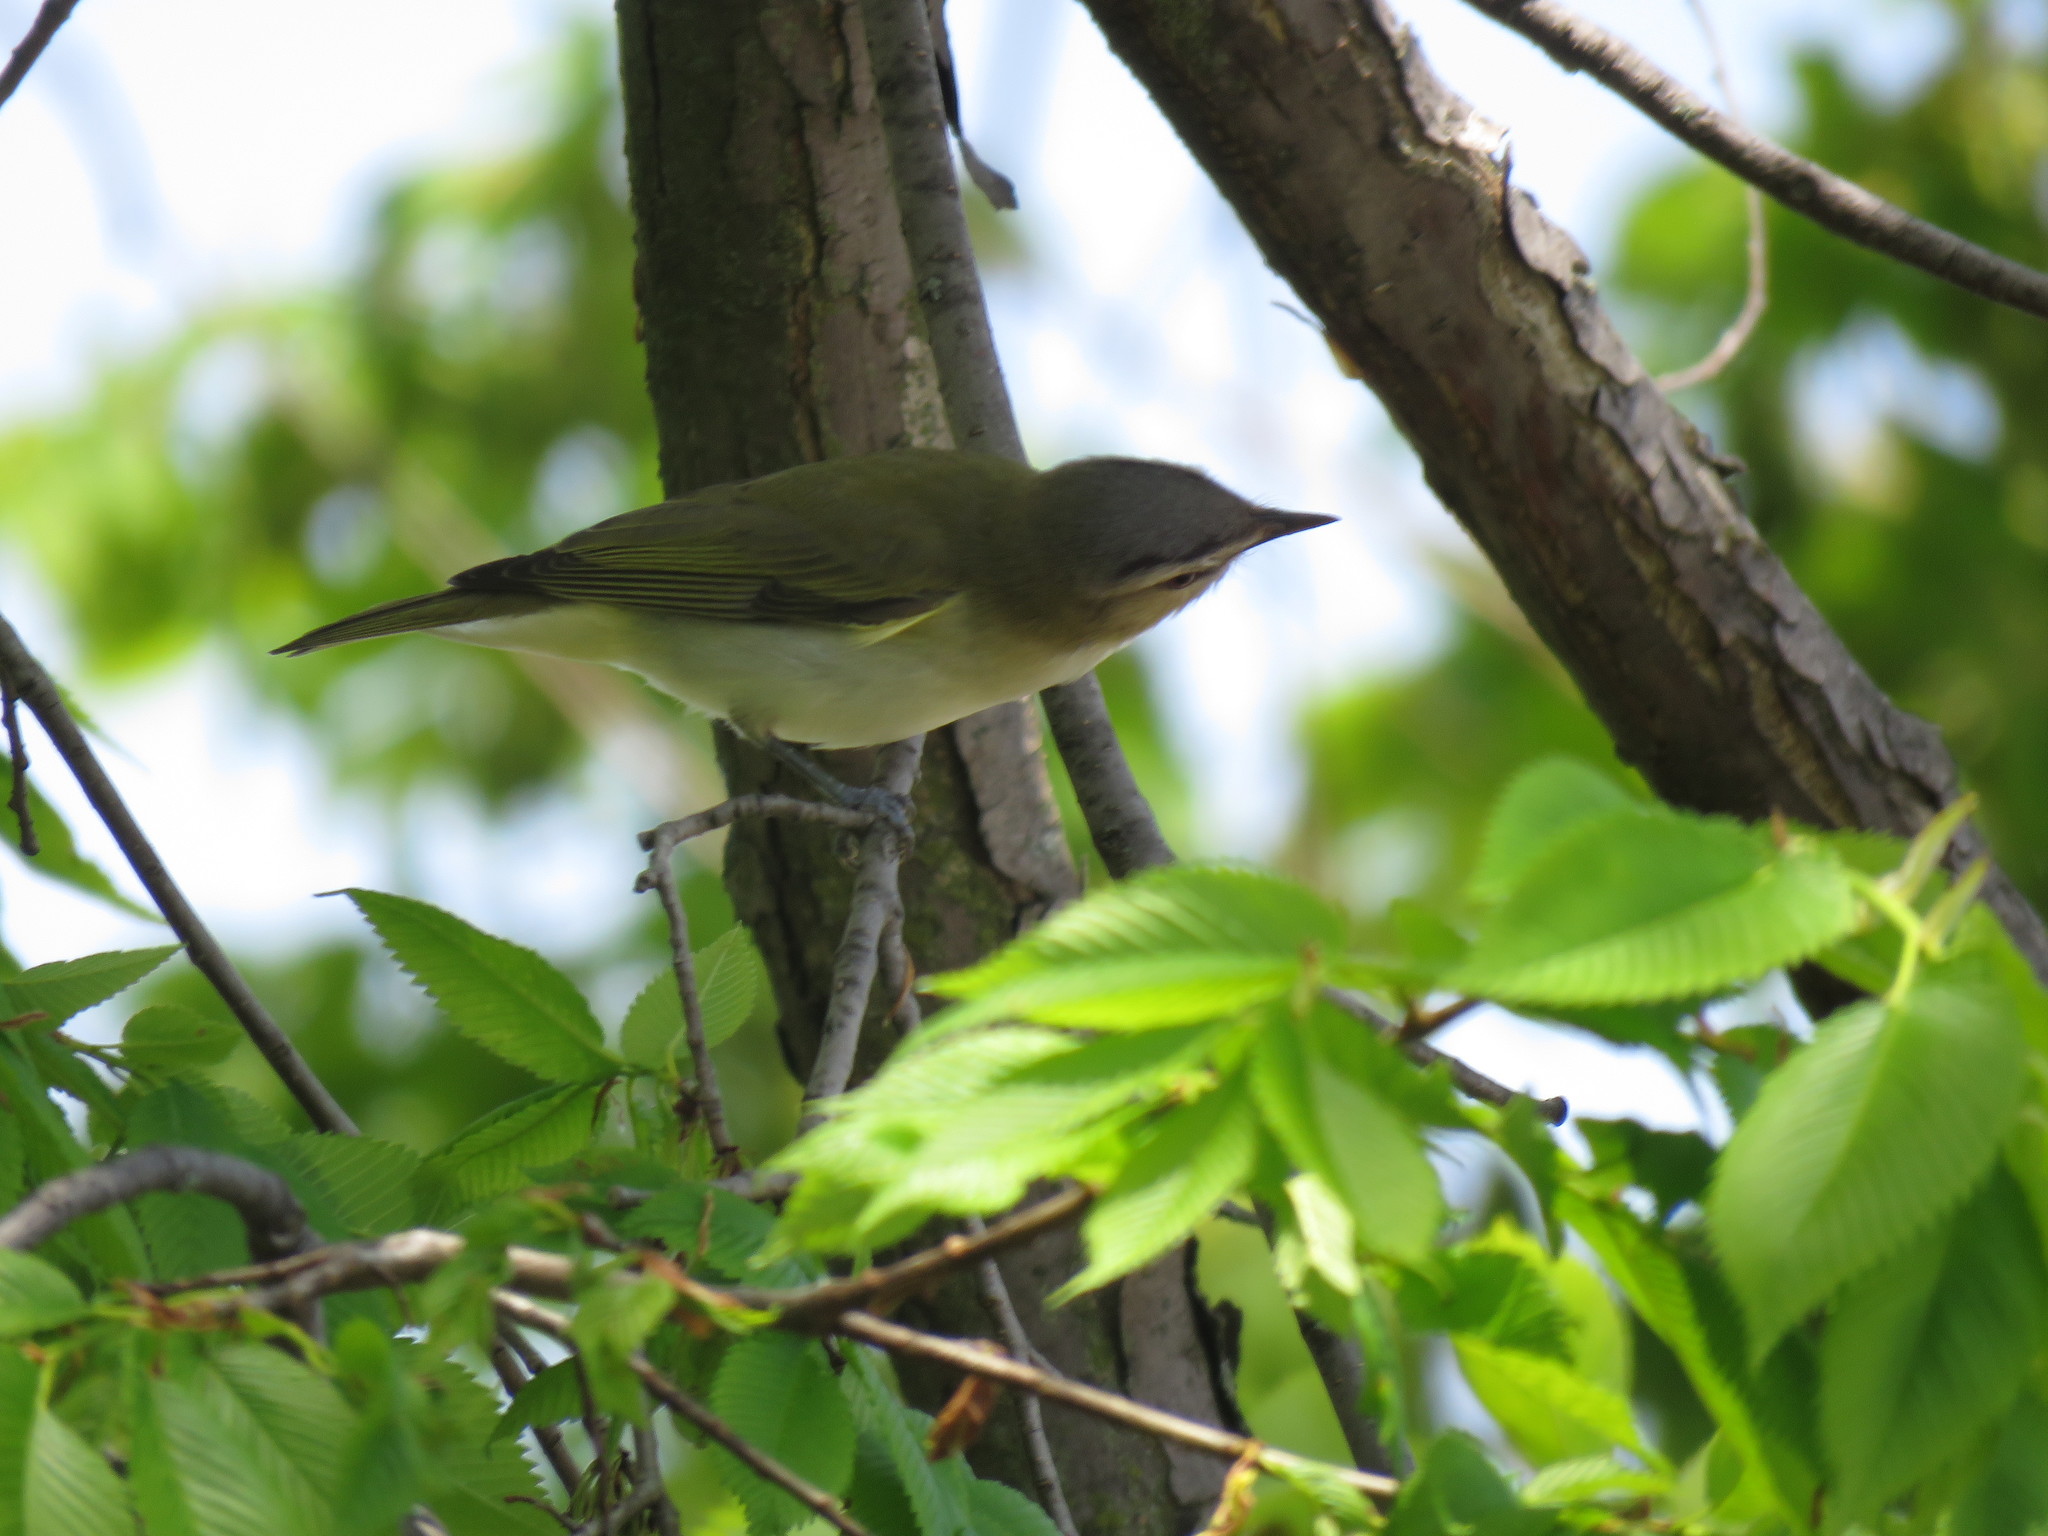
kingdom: Animalia
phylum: Chordata
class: Aves
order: Passeriformes
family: Vireonidae
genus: Vireo
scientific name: Vireo olivaceus
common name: Red-eyed vireo
